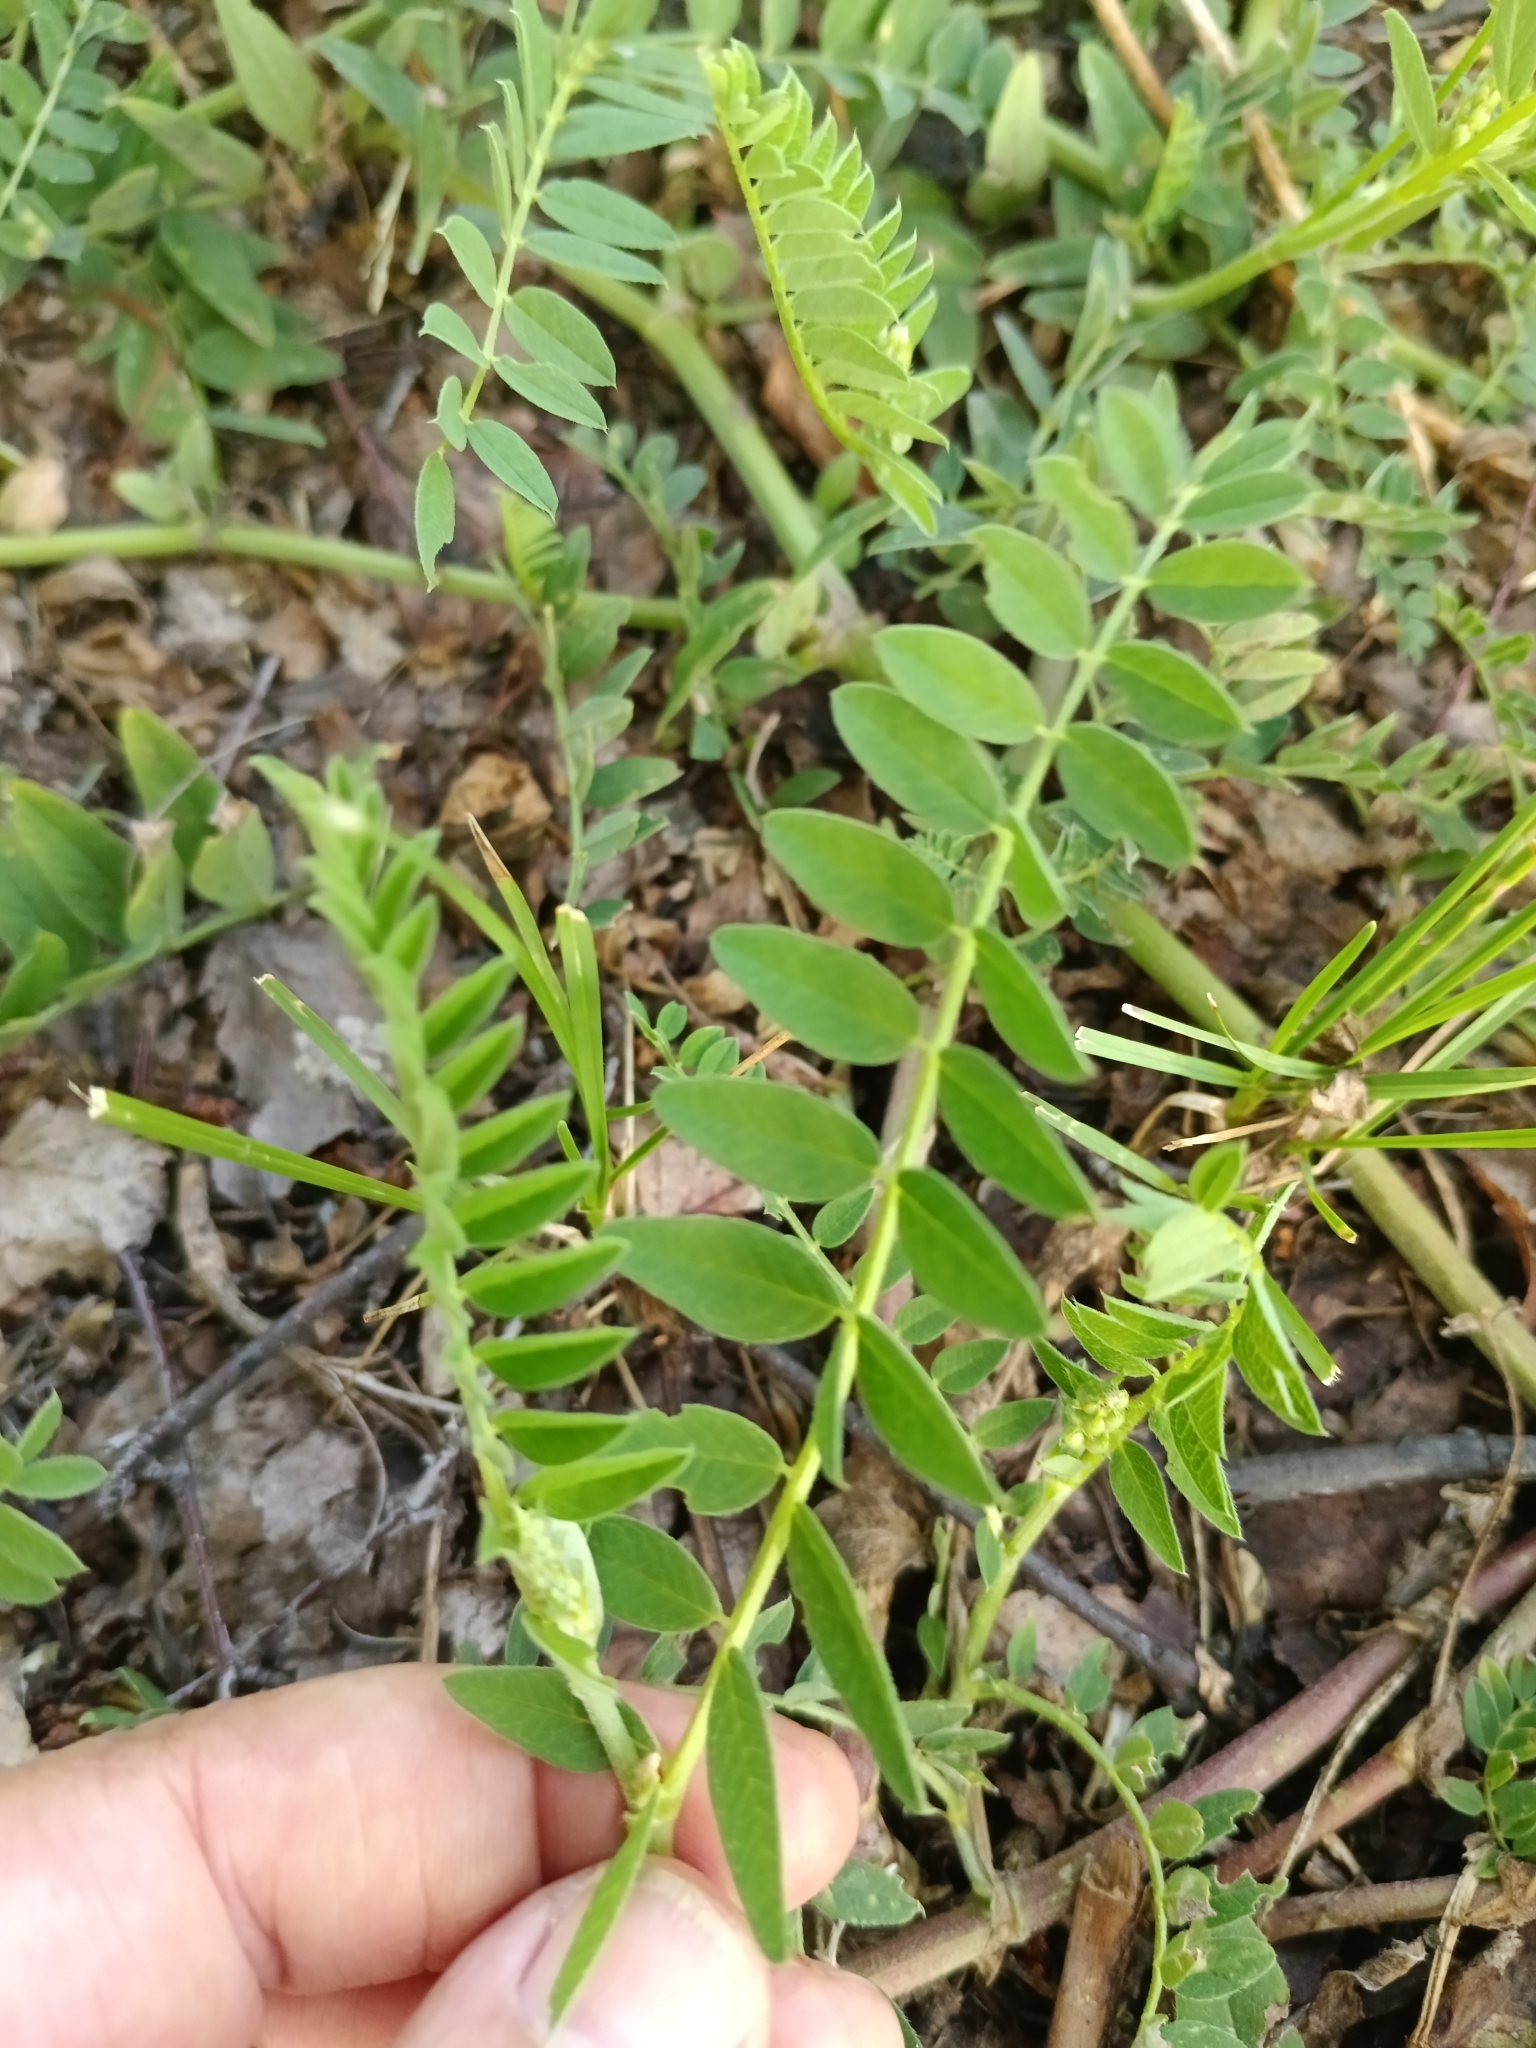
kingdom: Plantae
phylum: Tracheophyta
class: Magnoliopsida
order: Fabales
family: Fabaceae
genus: Astragalus
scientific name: Astragalus cicer
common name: Chick-pea milk-vetch
